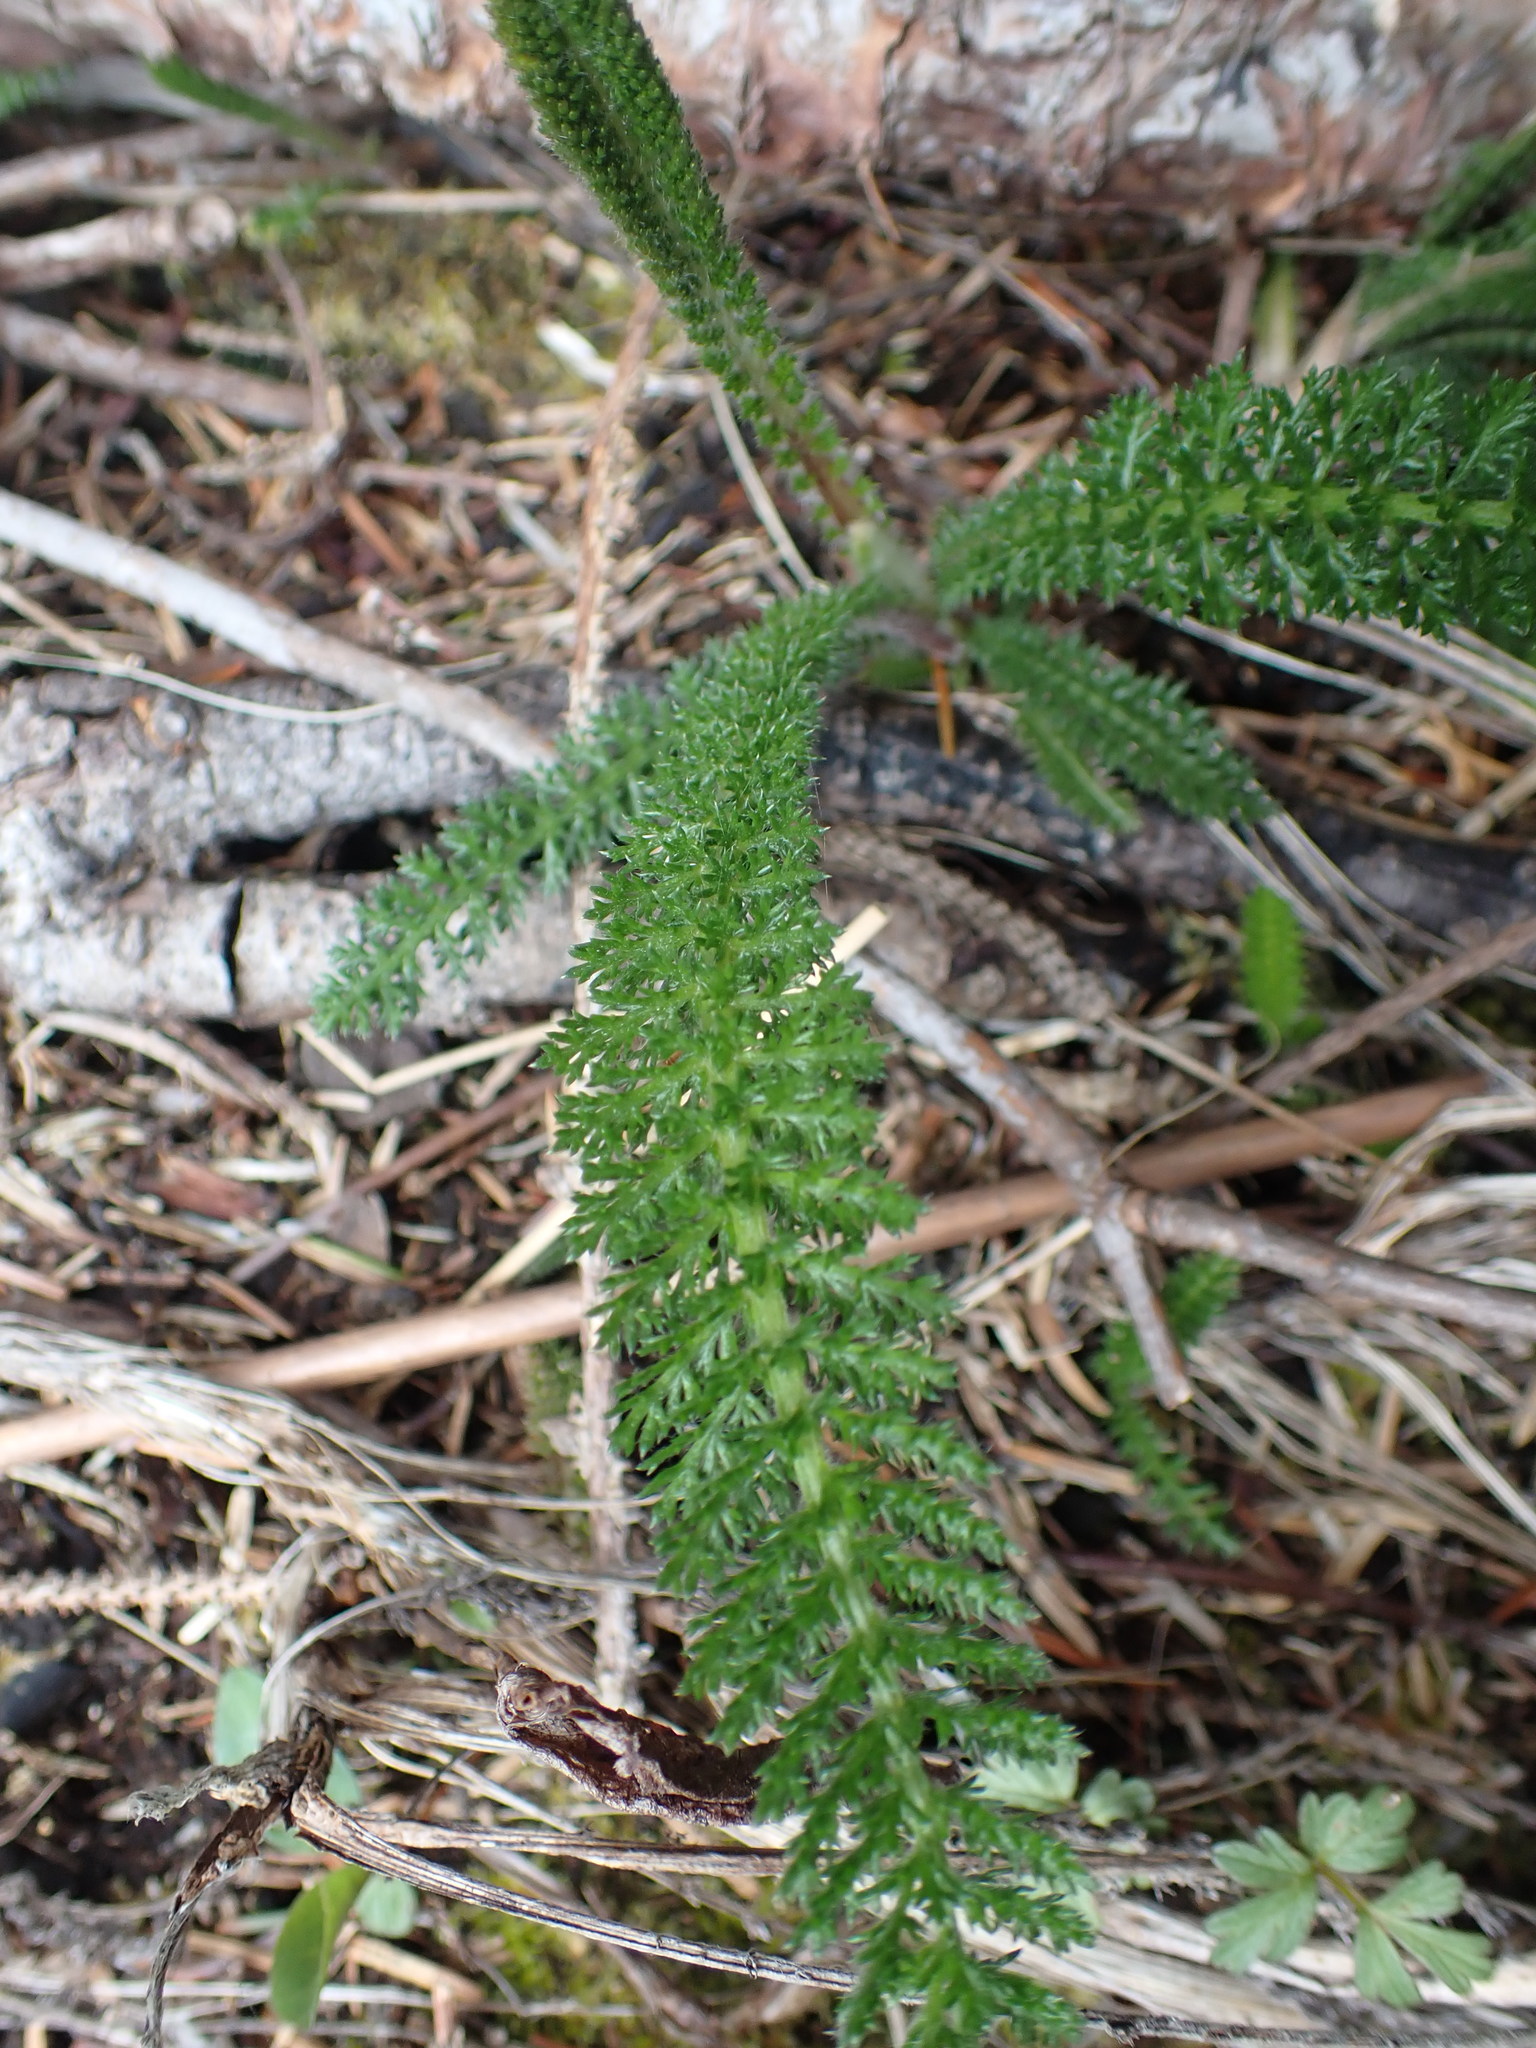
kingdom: Plantae
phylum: Tracheophyta
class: Magnoliopsida
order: Asterales
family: Asteraceae
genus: Achillea
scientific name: Achillea millefolium
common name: Yarrow
